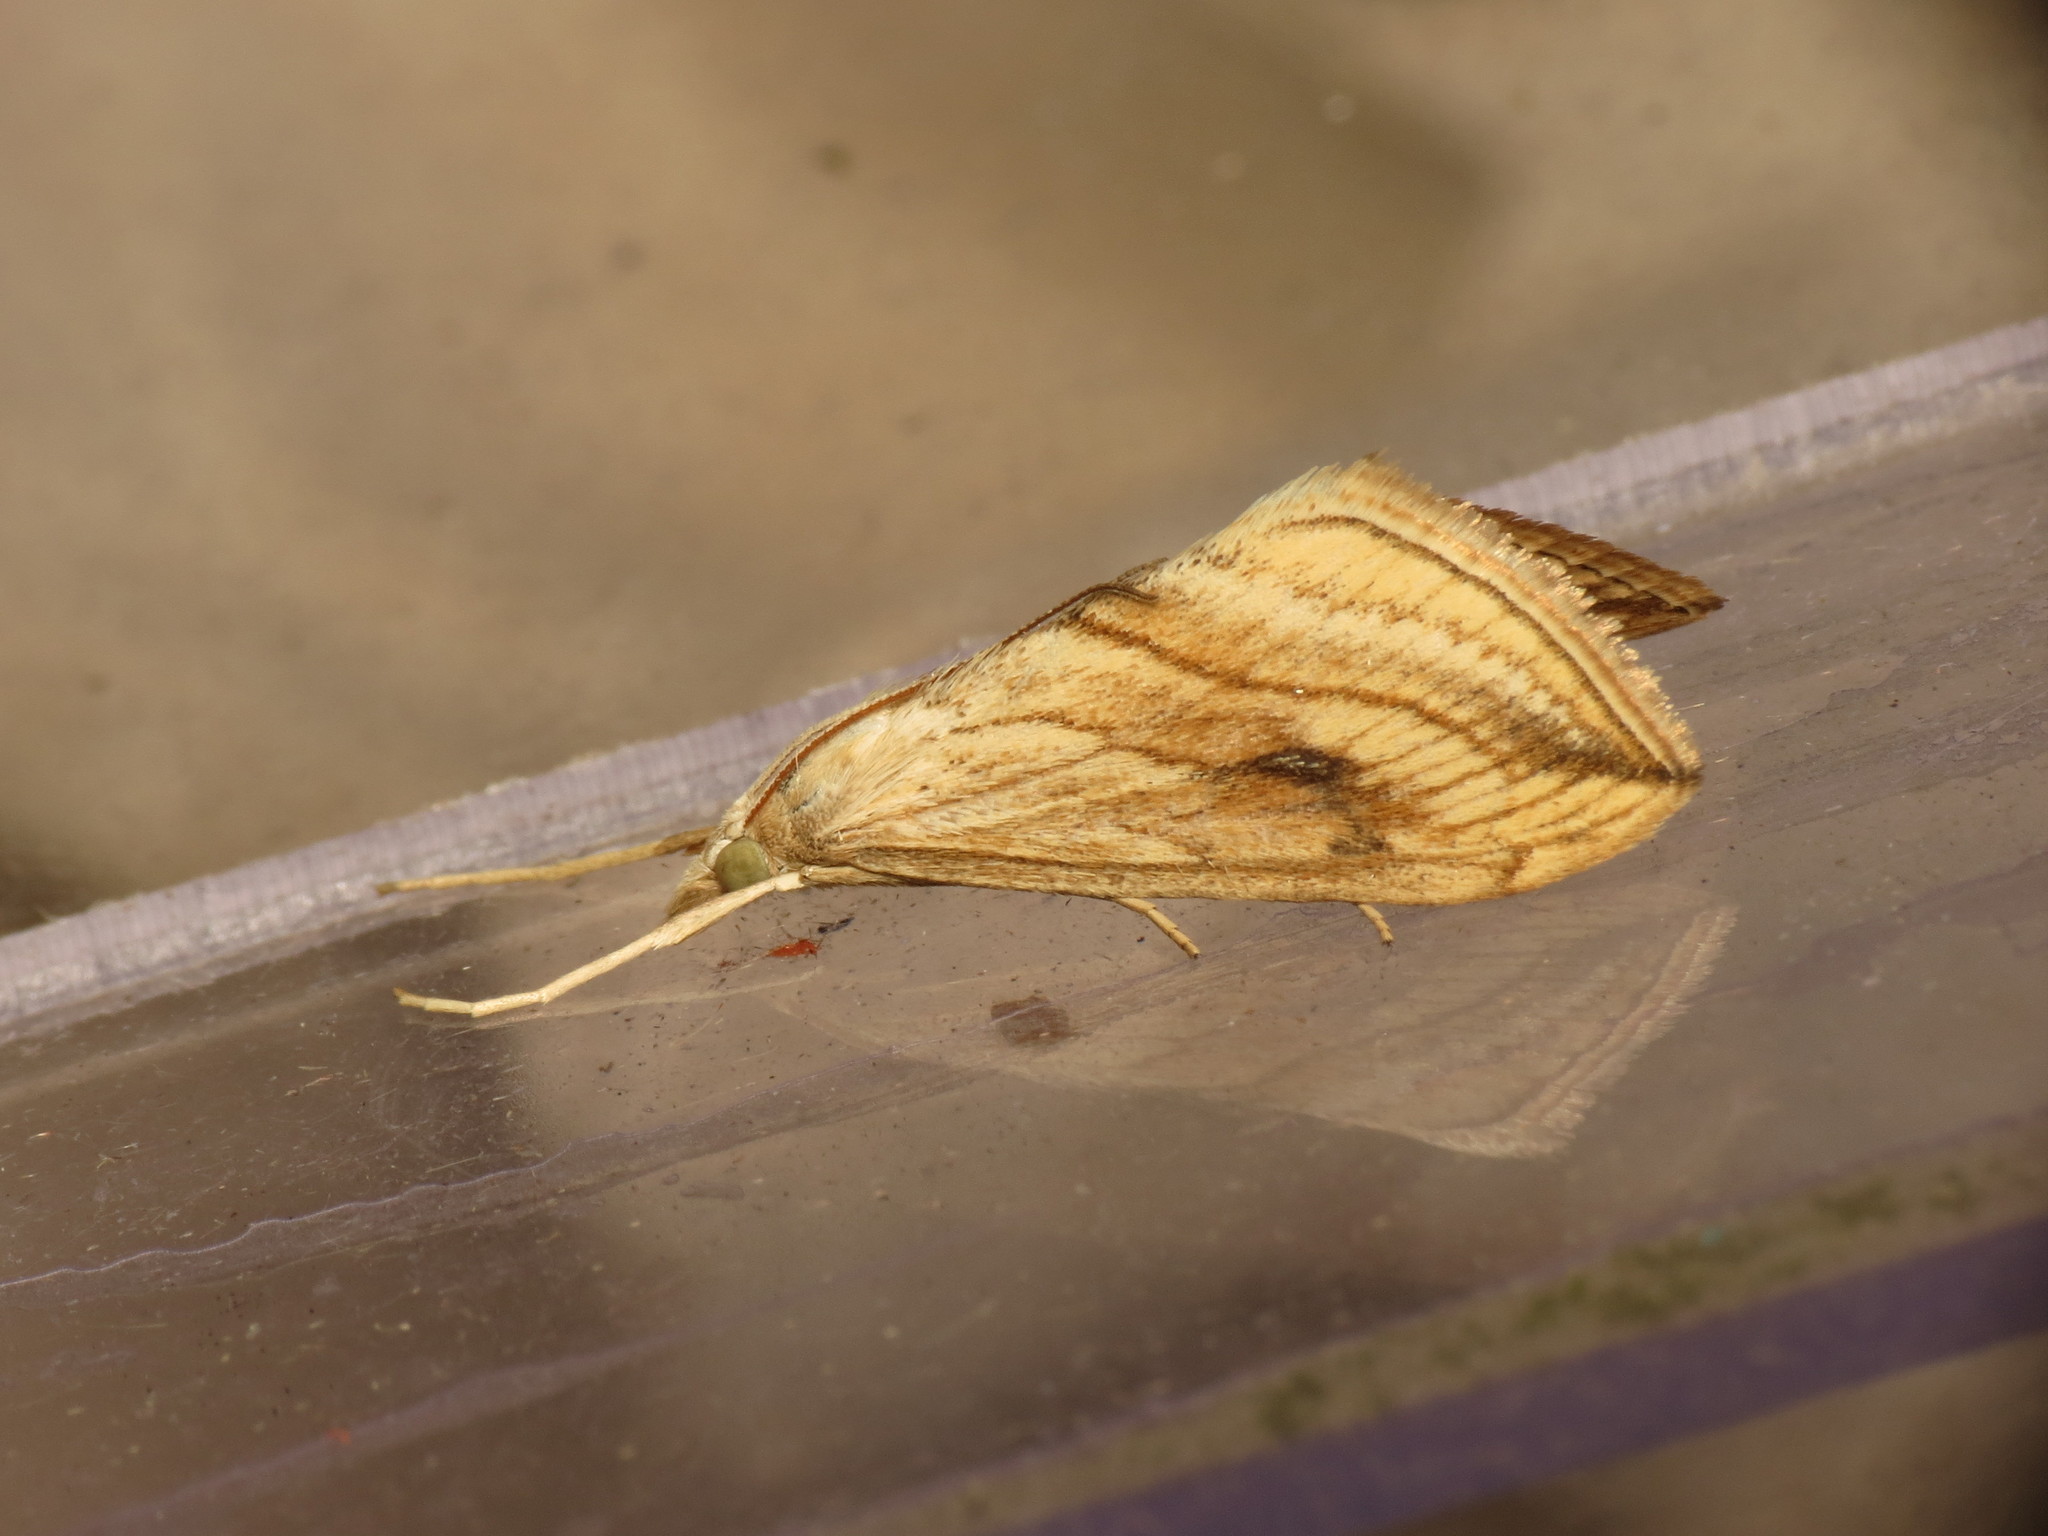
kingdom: Animalia
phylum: Arthropoda
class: Insecta
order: Lepidoptera
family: Crambidae
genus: Evergestis
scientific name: Evergestis forficalis
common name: Garden pebble
